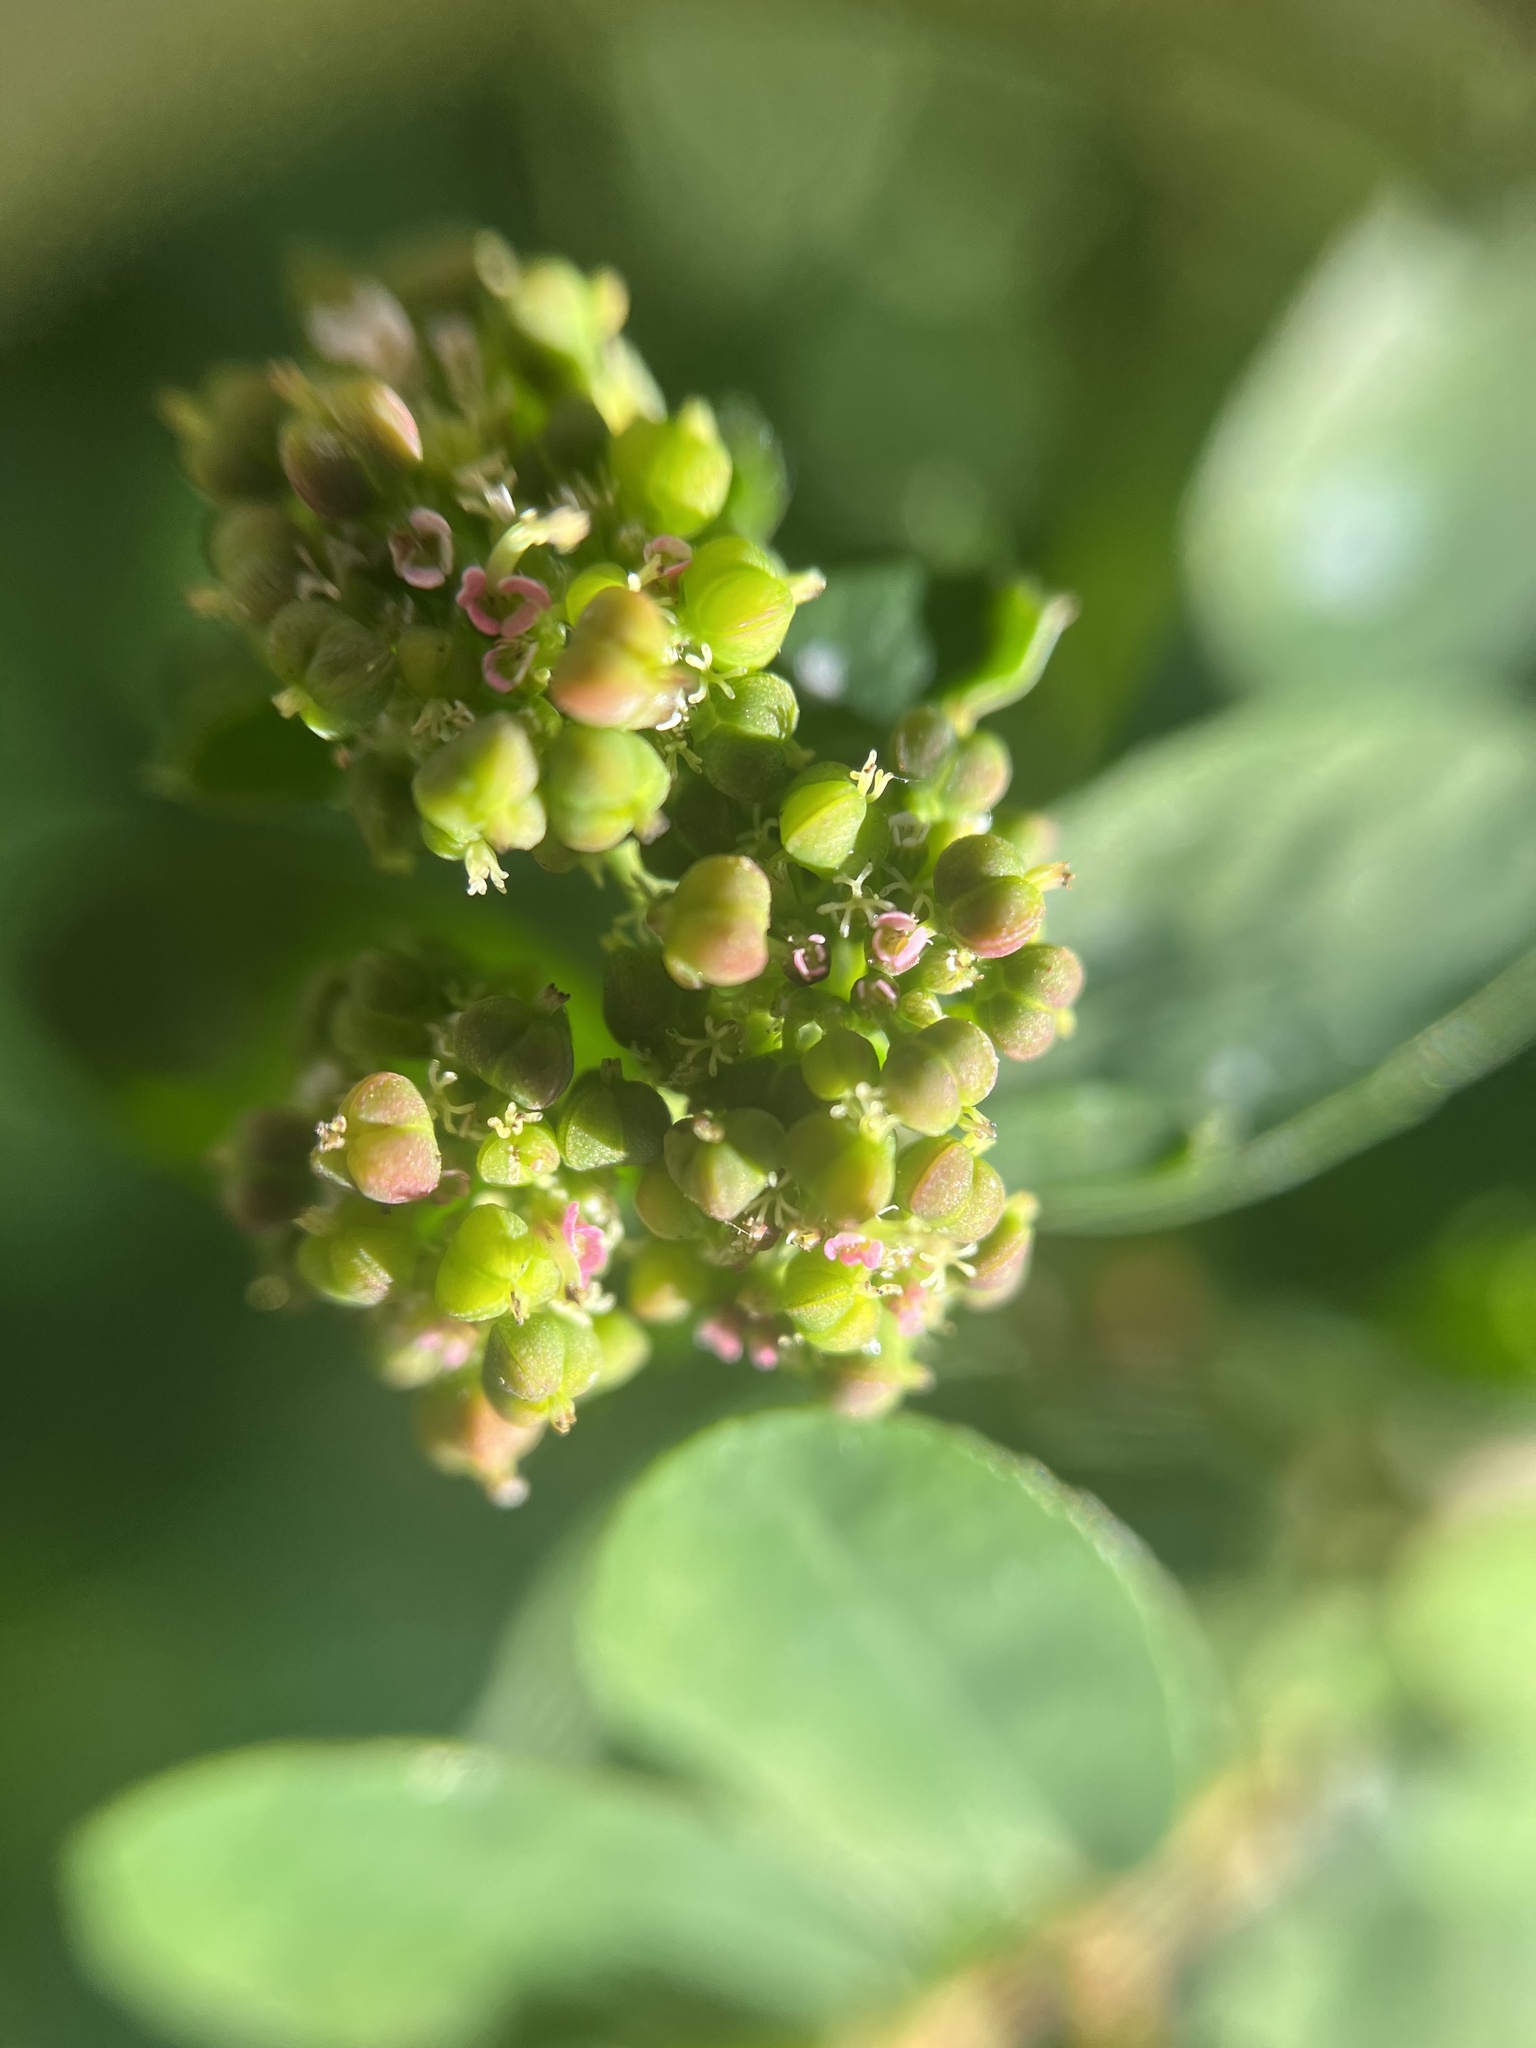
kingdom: Plantae
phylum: Tracheophyta
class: Magnoliopsida
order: Malpighiales
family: Euphorbiaceae
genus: Euphorbia
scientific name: Euphorbia hypericifolia
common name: Graceful sandmat
